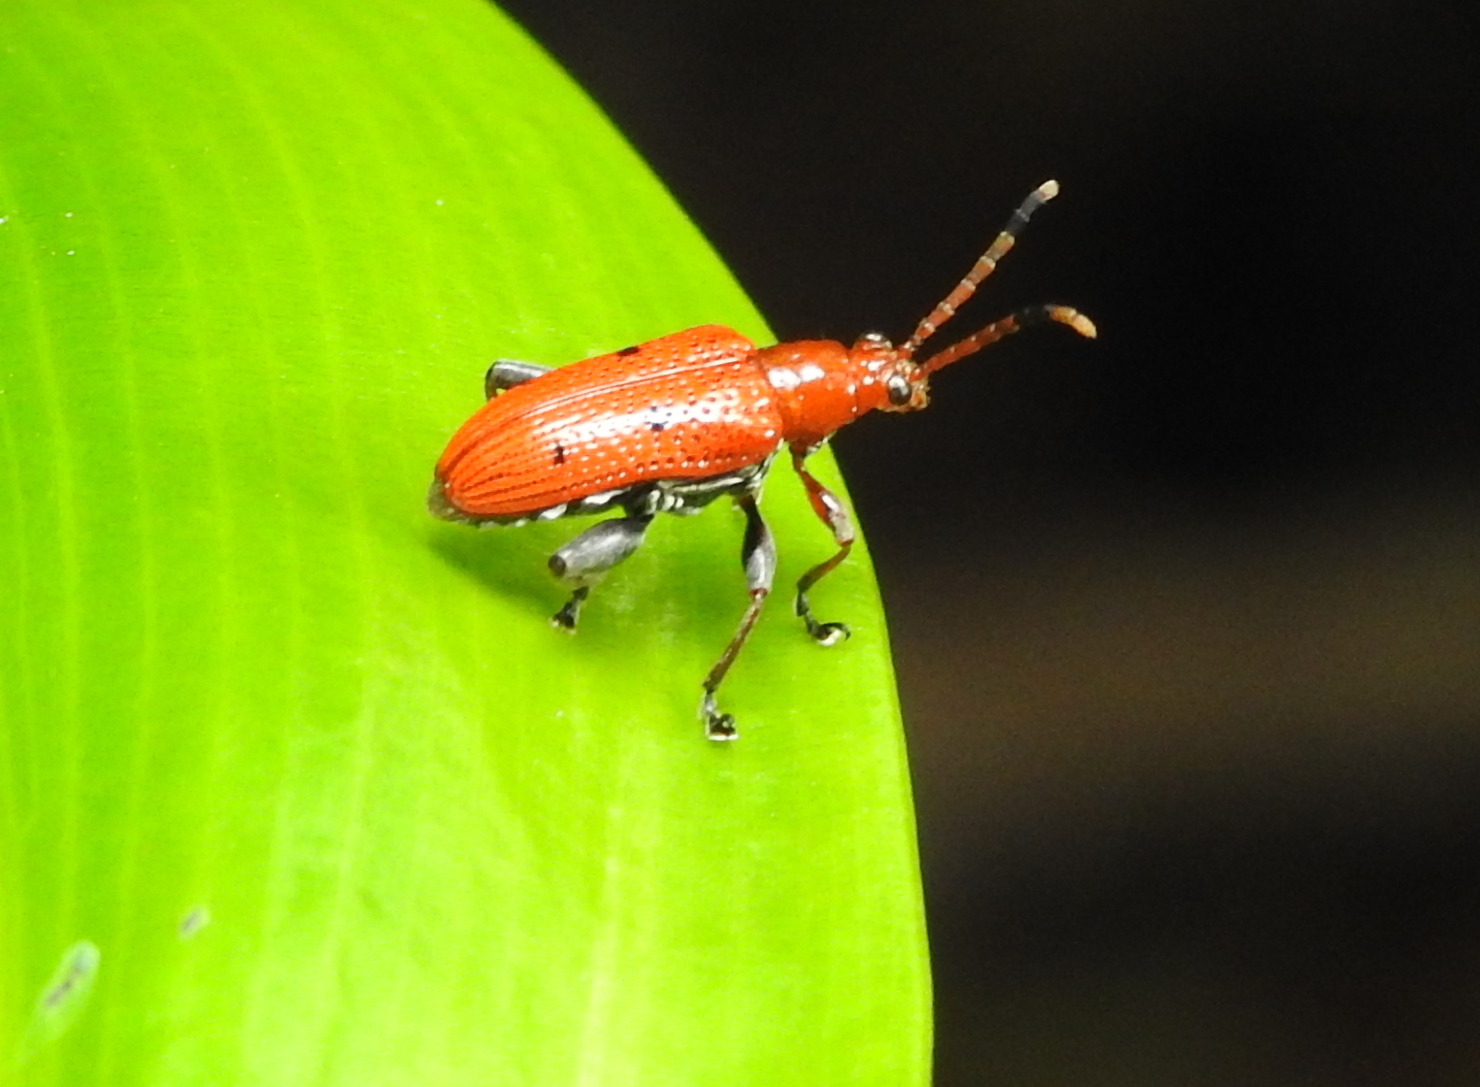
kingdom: Animalia
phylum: Arthropoda
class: Insecta
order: Coleoptera
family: Chrysomelidae
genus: Lema
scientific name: Lema
